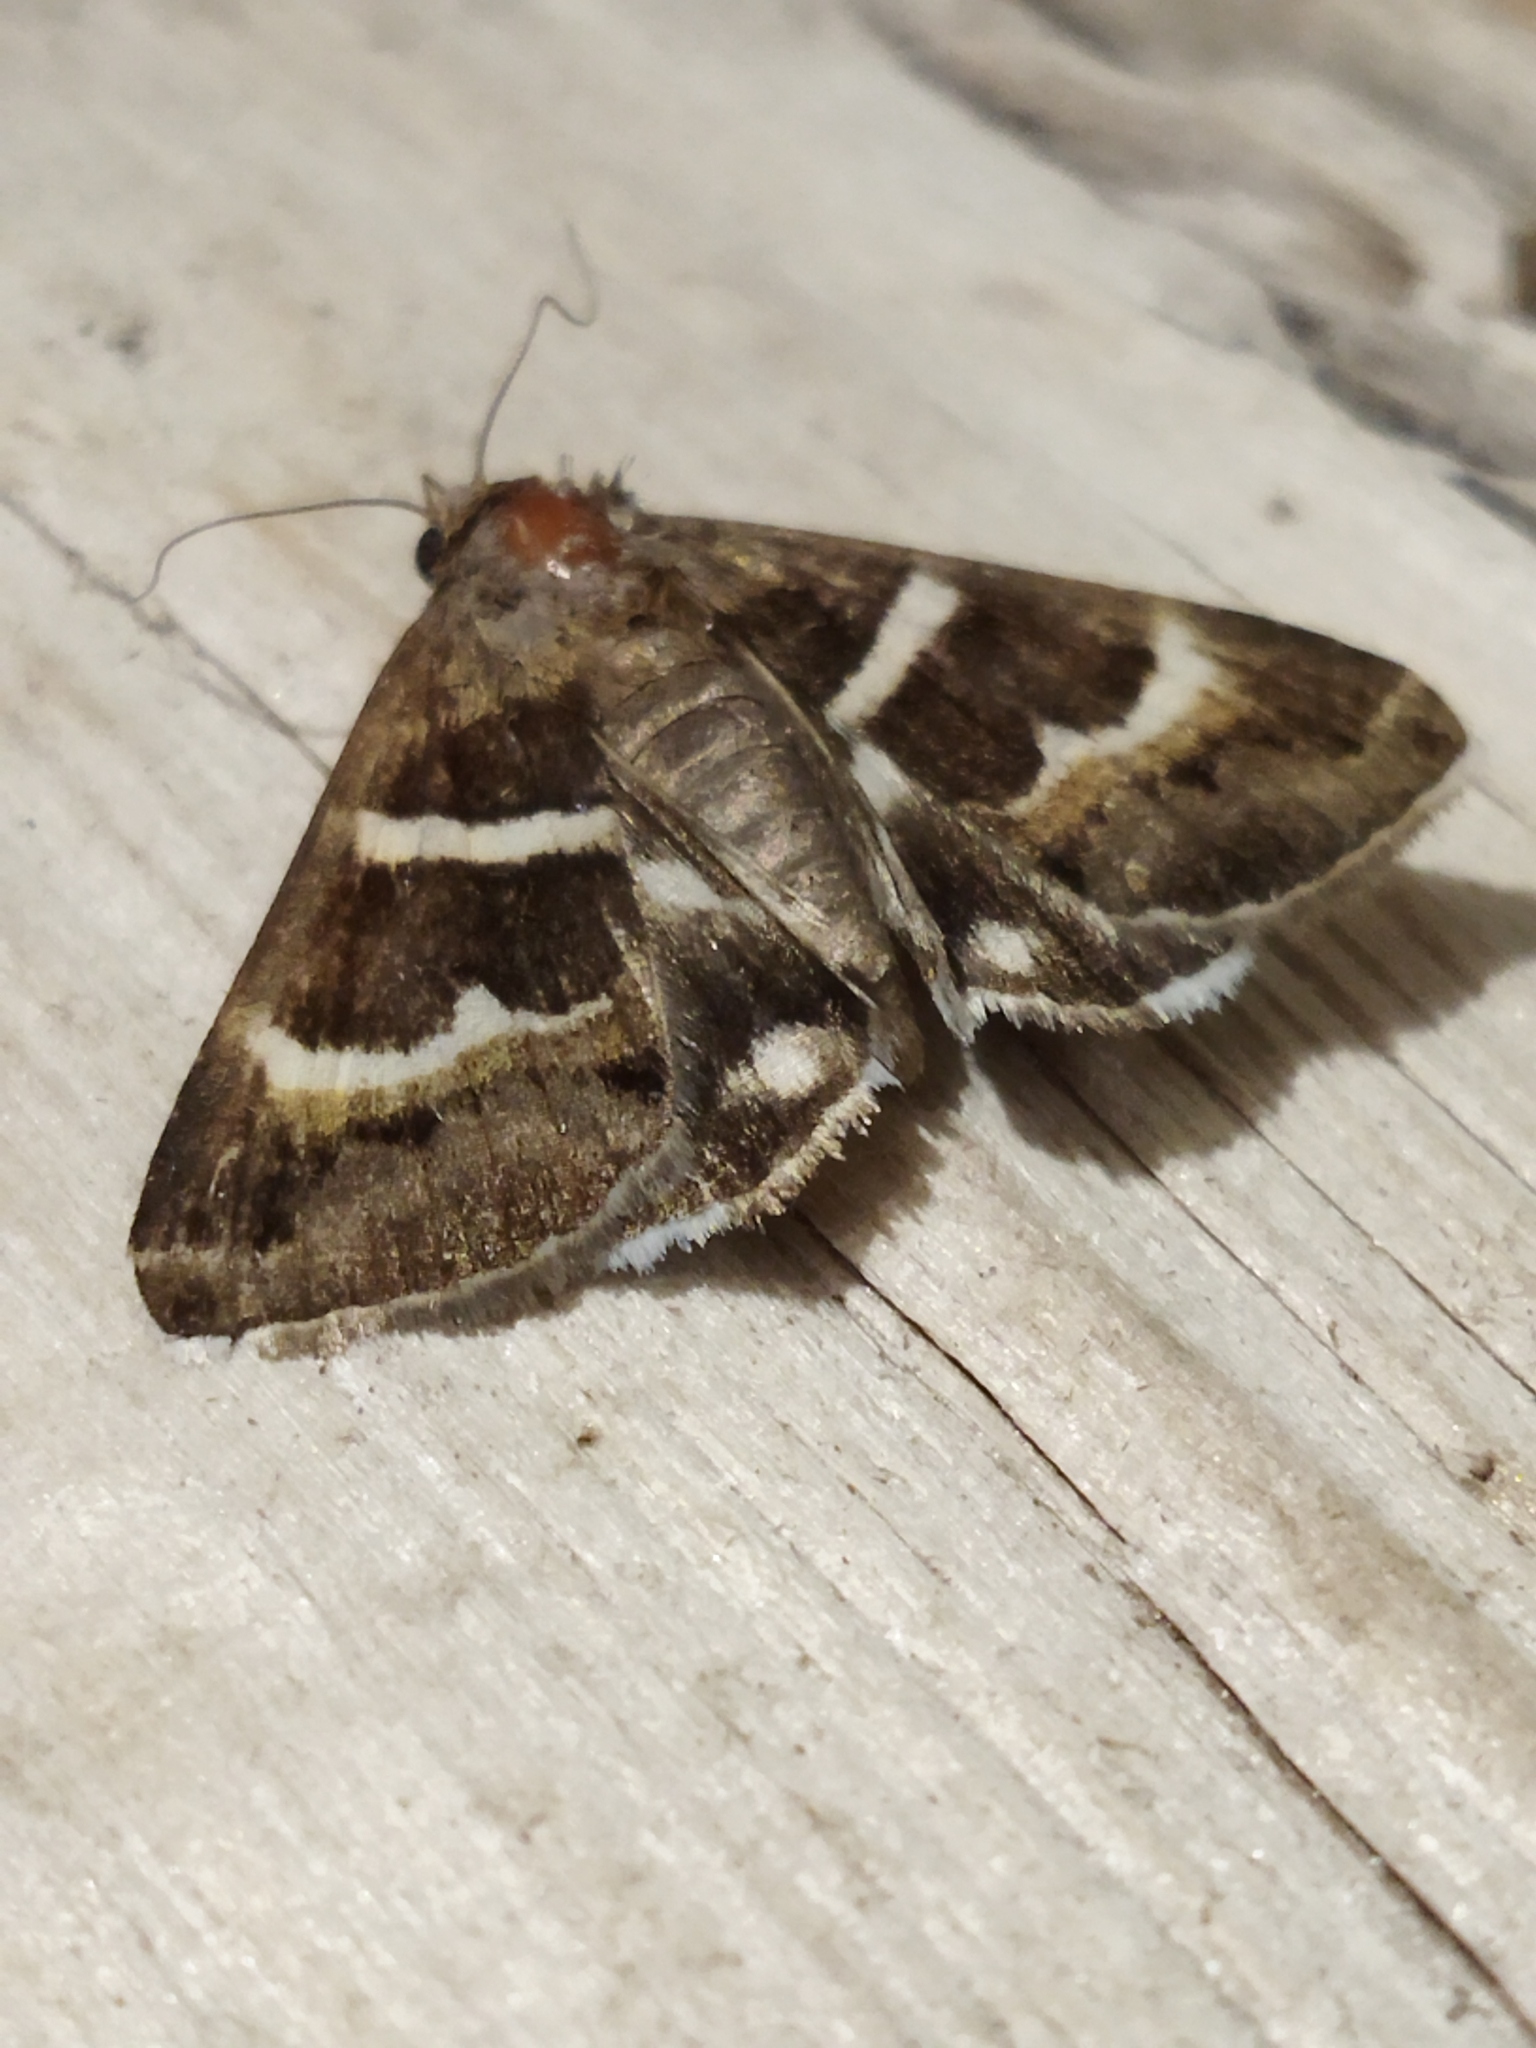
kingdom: Animalia
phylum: Arthropoda
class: Insecta
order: Lepidoptera
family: Erebidae
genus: Grammodes
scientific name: Grammodes stolida
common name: Geometrician
